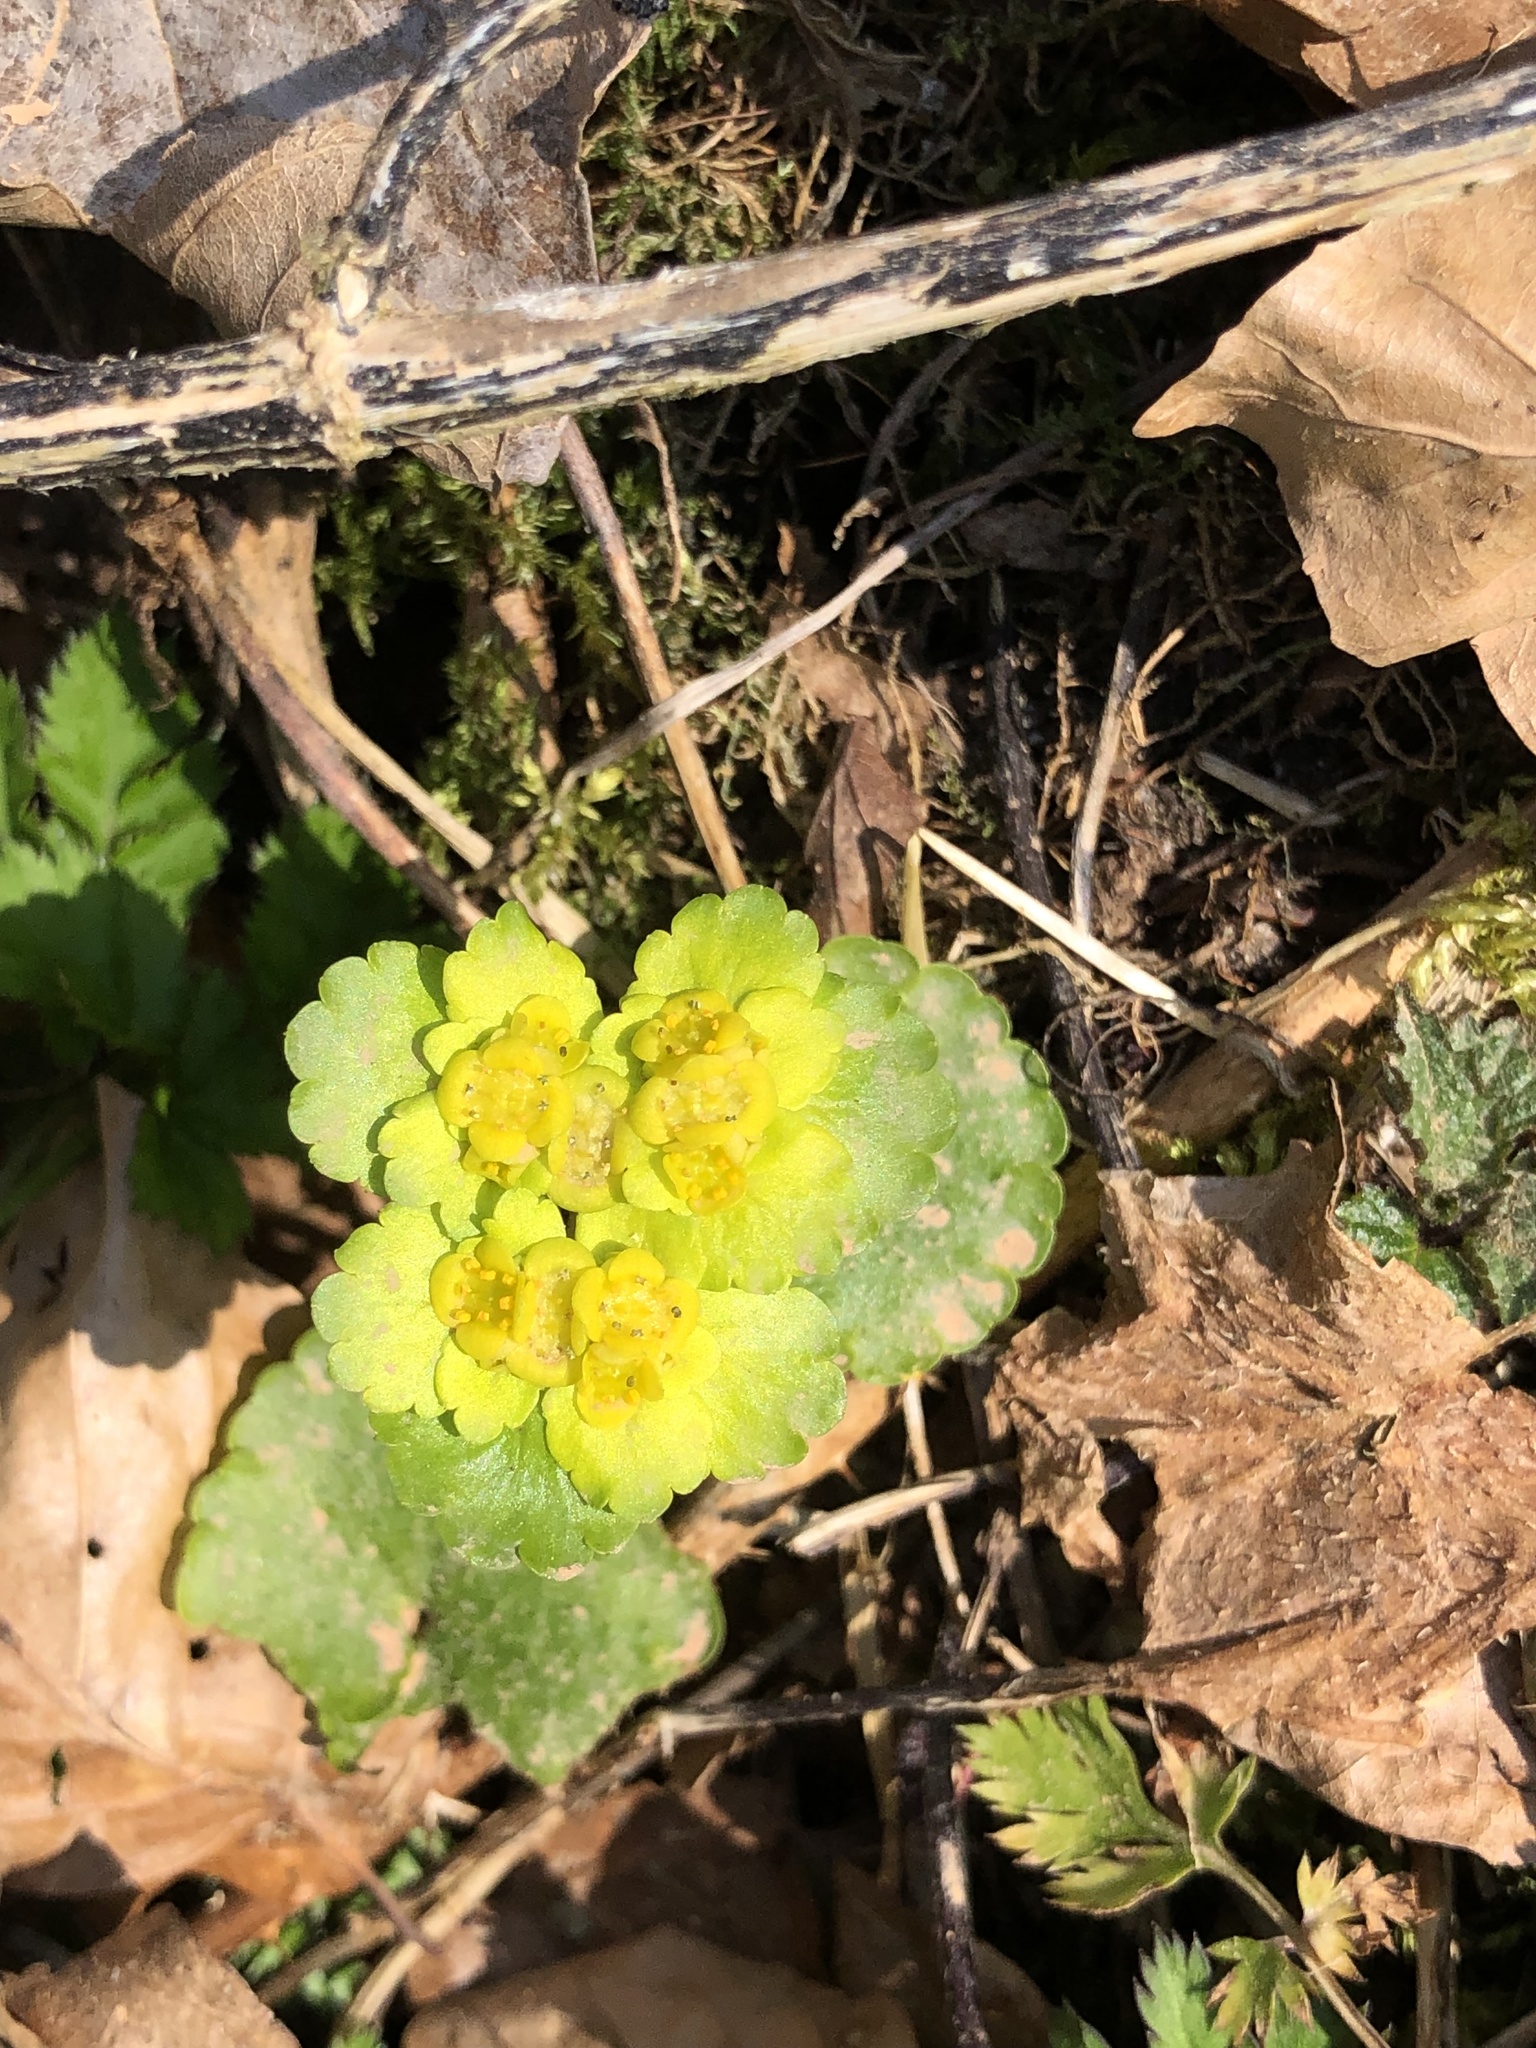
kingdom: Plantae
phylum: Tracheophyta
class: Magnoliopsida
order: Saxifragales
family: Saxifragaceae
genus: Chrysosplenium
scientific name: Chrysosplenium alternifolium
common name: Alternate-leaved golden-saxifrage
